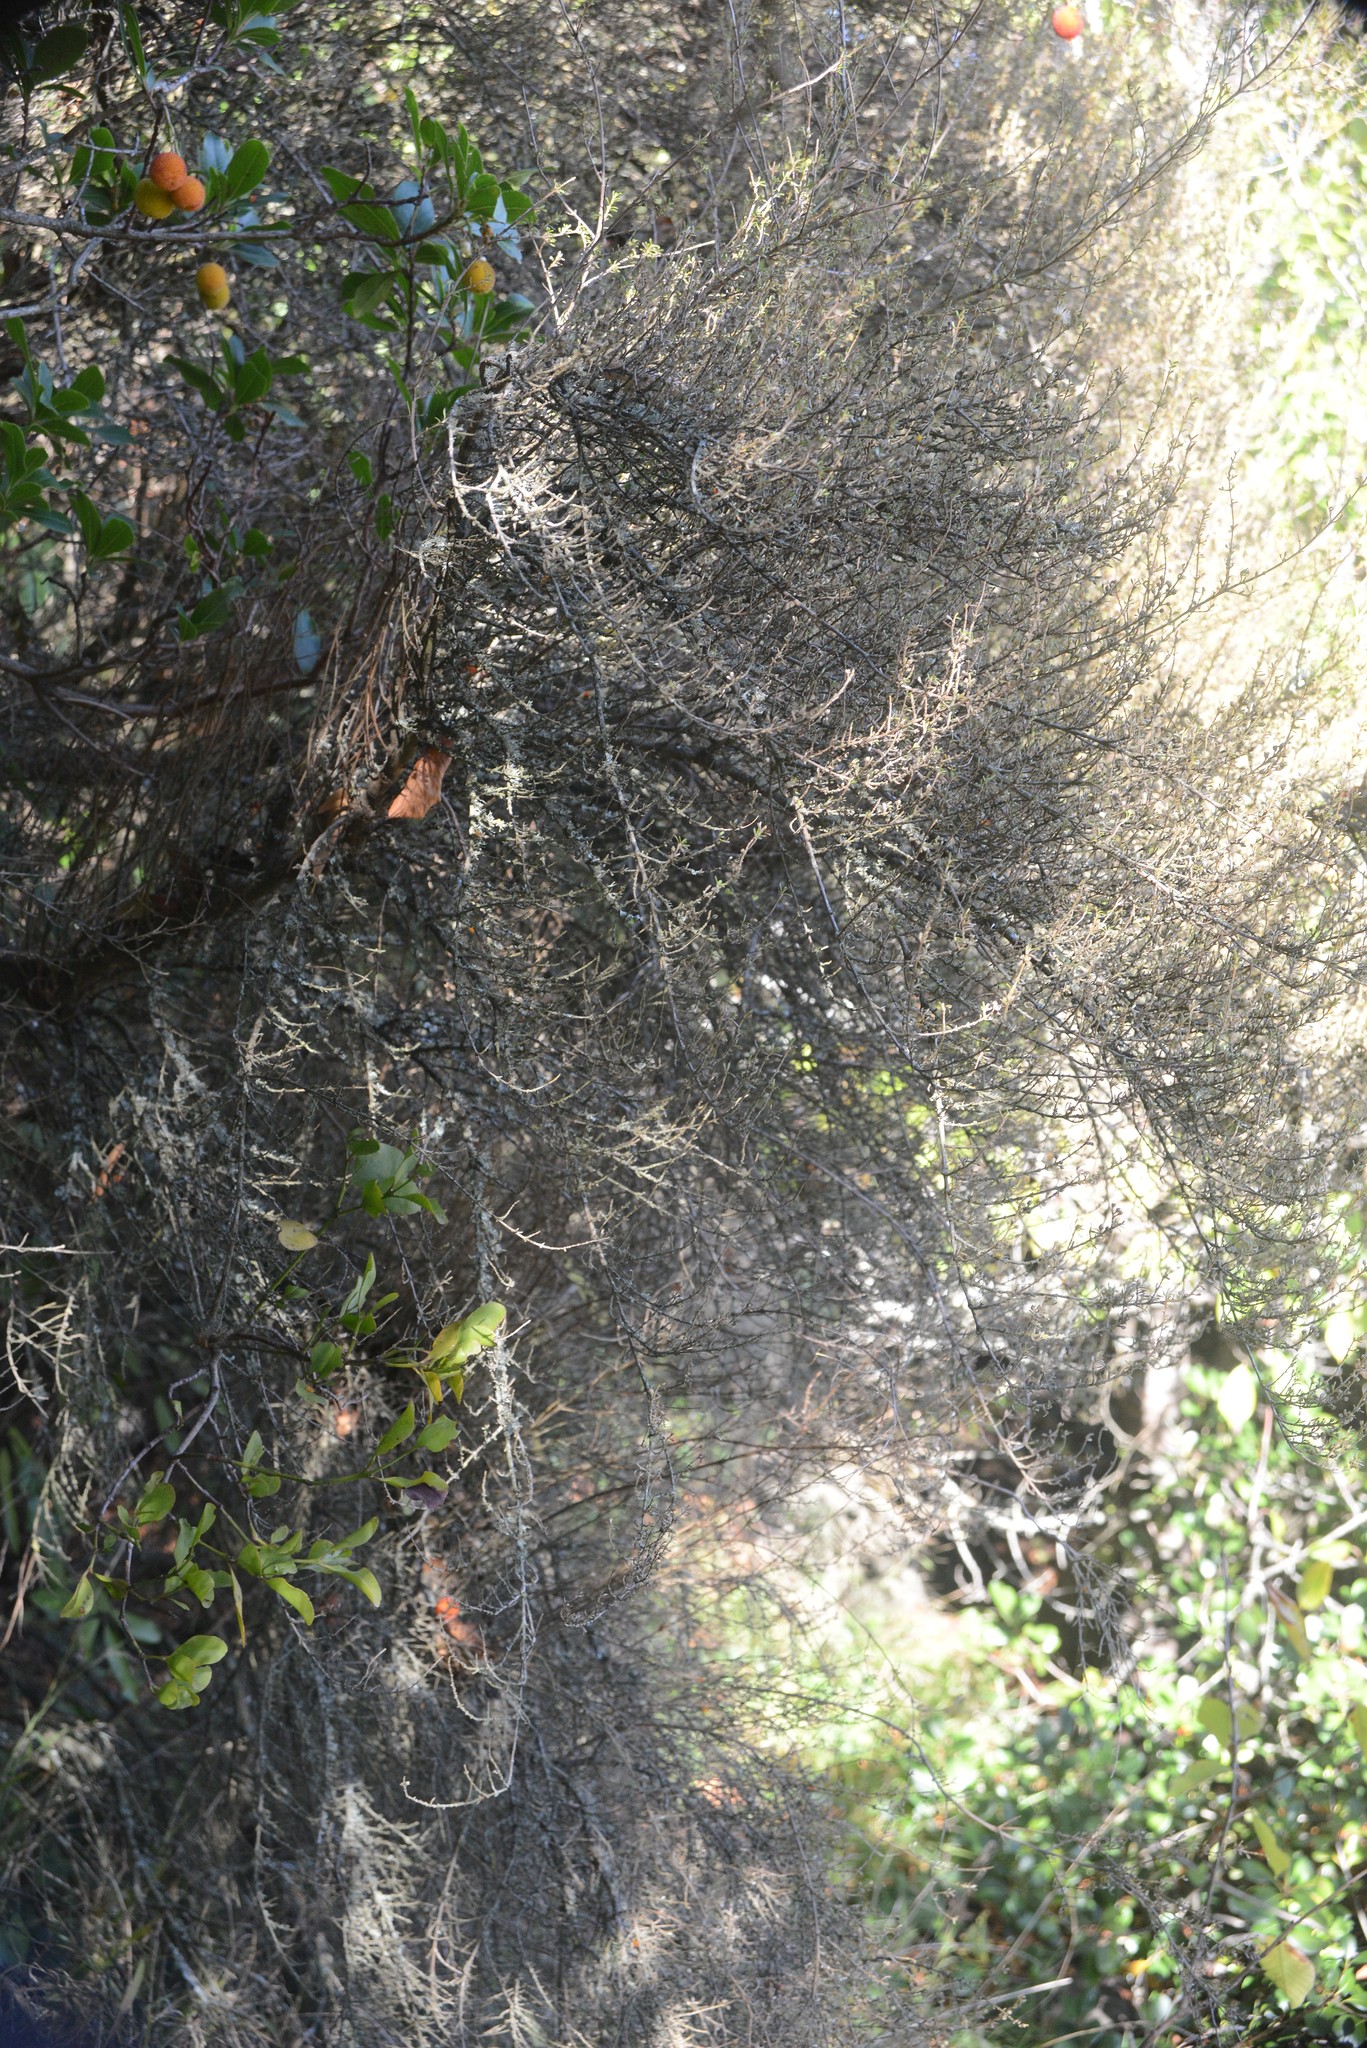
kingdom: Plantae
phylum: Tracheophyta
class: Magnoliopsida
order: Santalales
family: Loranthaceae
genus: Ileostylus
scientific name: Ileostylus micranthus
